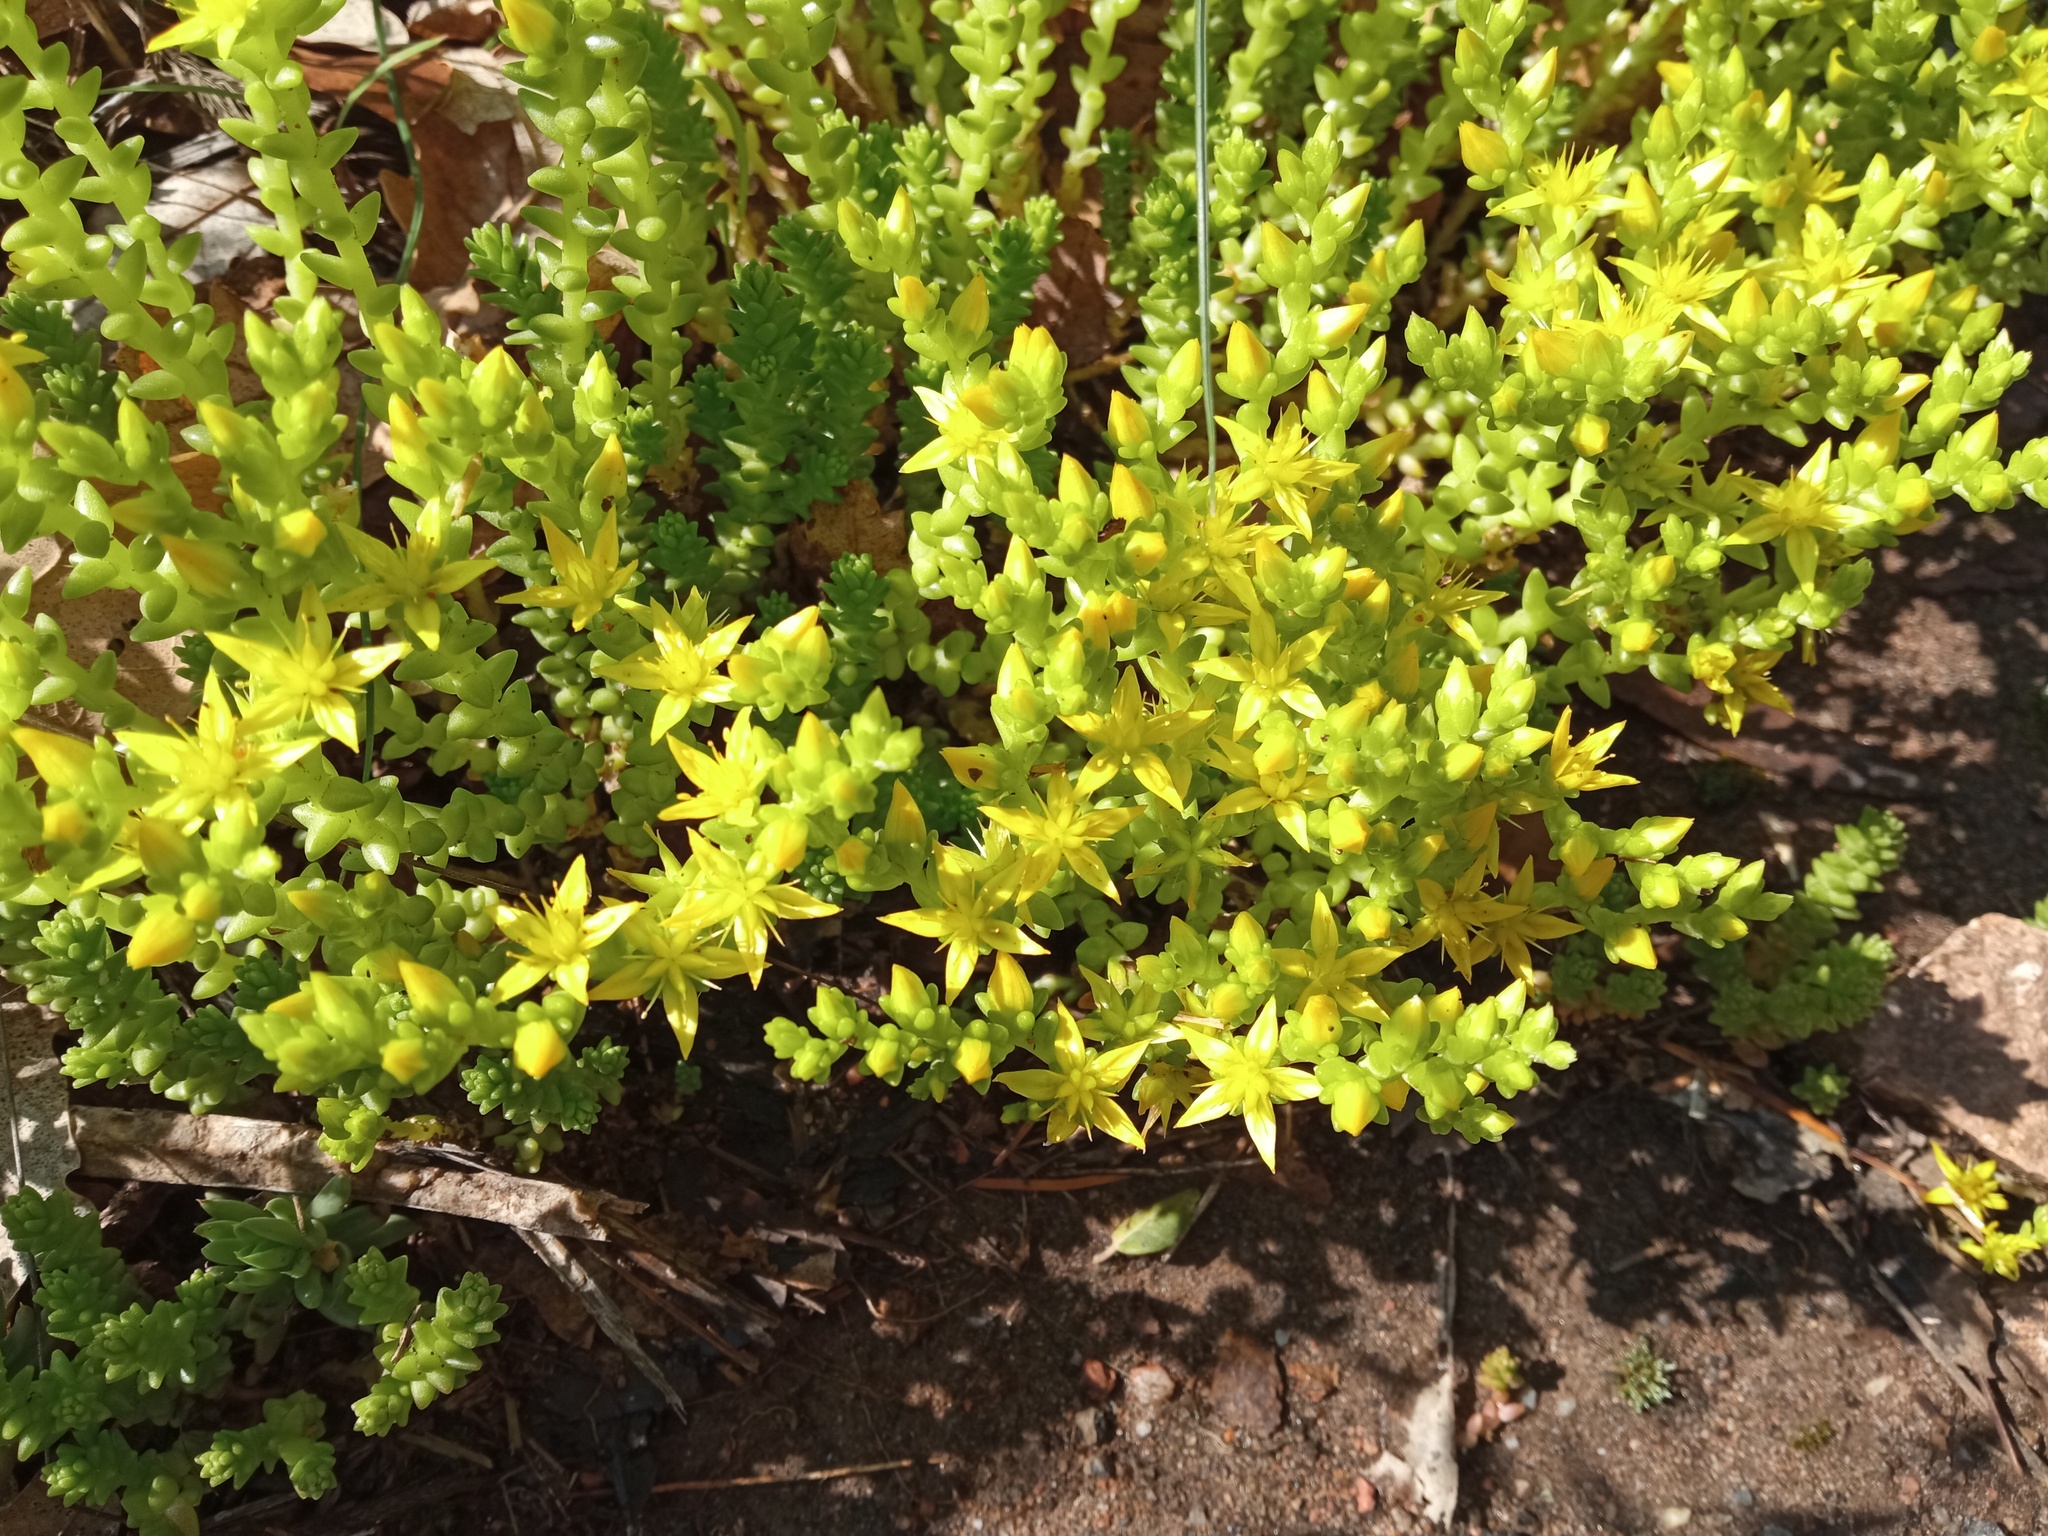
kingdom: Plantae
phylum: Tracheophyta
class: Magnoliopsida
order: Saxifragales
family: Crassulaceae
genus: Sedum
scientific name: Sedum acre
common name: Biting stonecrop
